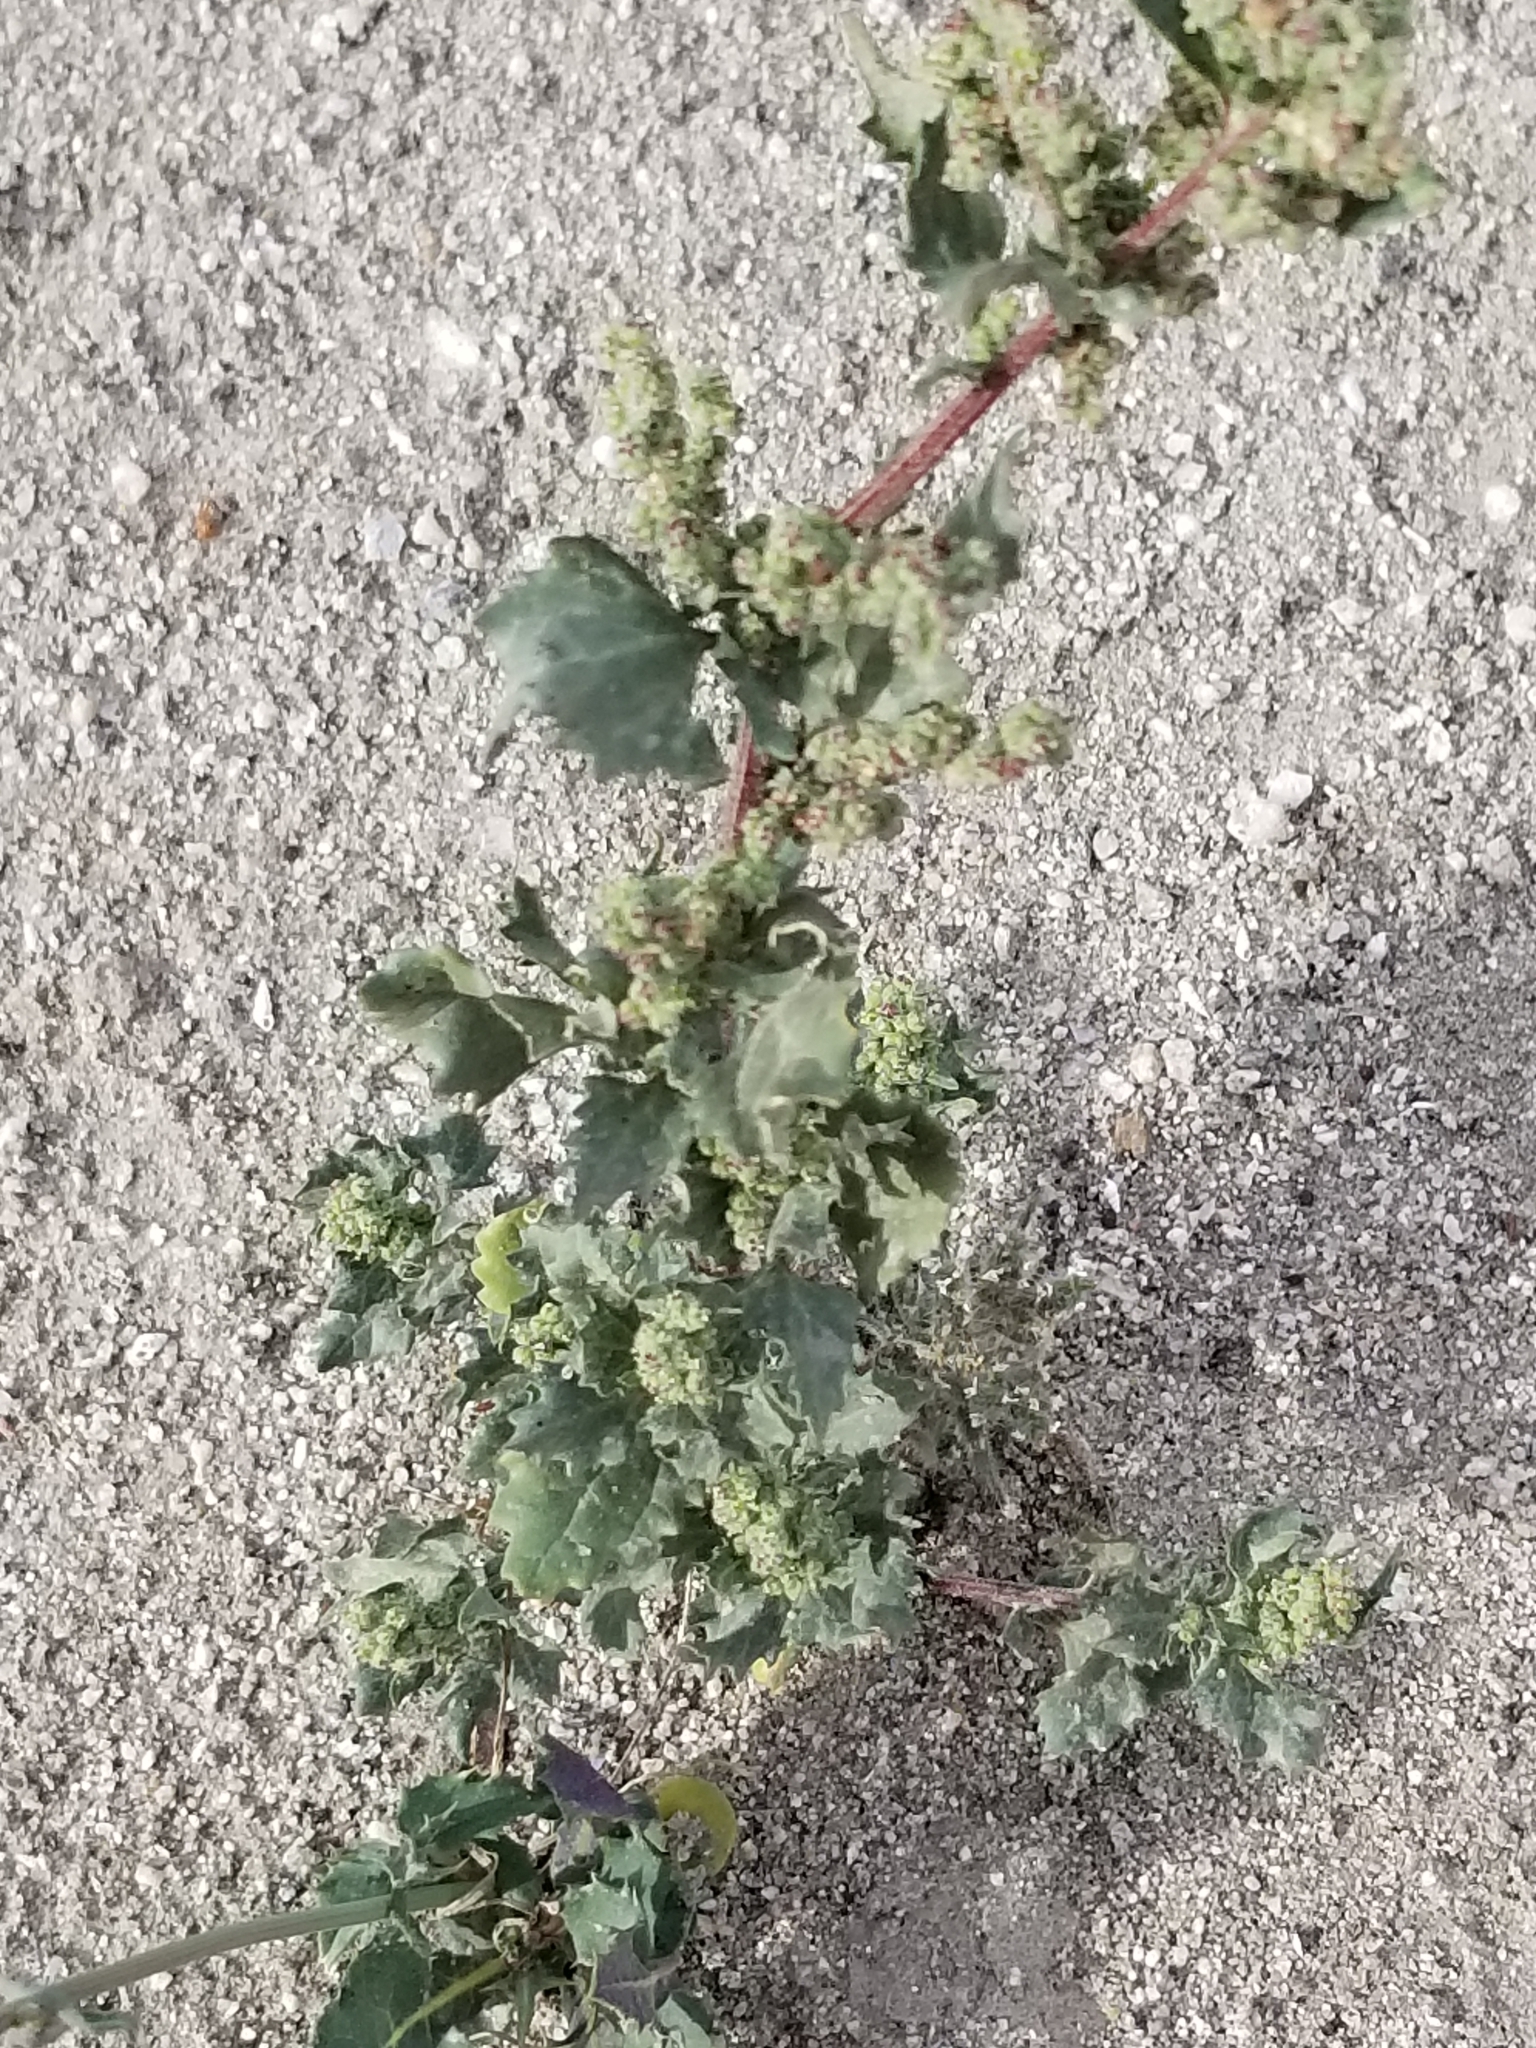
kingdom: Plantae
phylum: Tracheophyta
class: Magnoliopsida
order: Caryophyllales
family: Amaranthaceae
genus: Chenopodiastrum
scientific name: Chenopodiastrum murale
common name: Sowbane
